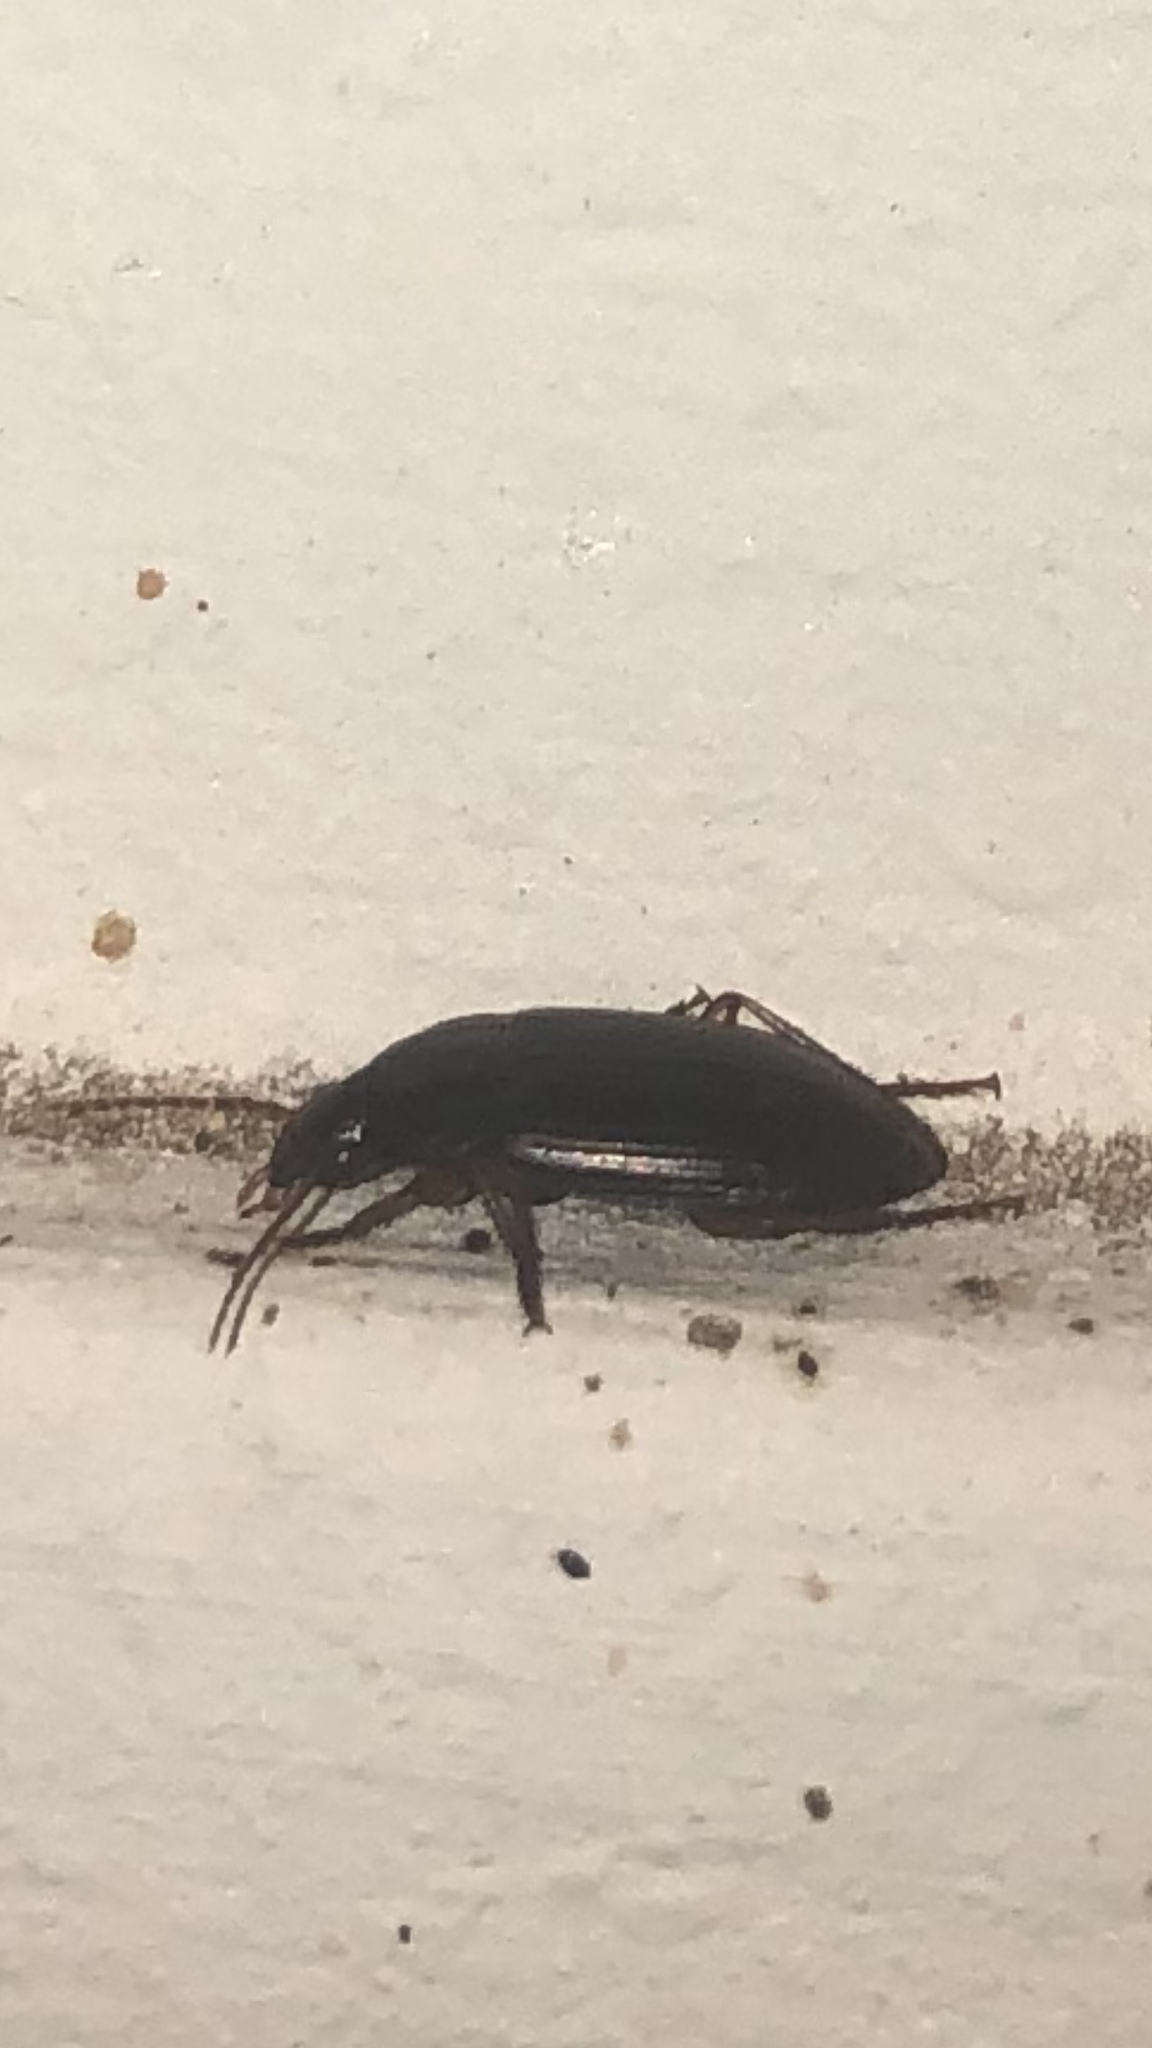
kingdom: Animalia
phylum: Arthropoda
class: Insecta
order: Coleoptera
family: Carabidae
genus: Notiobia
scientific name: Notiobia terminata
